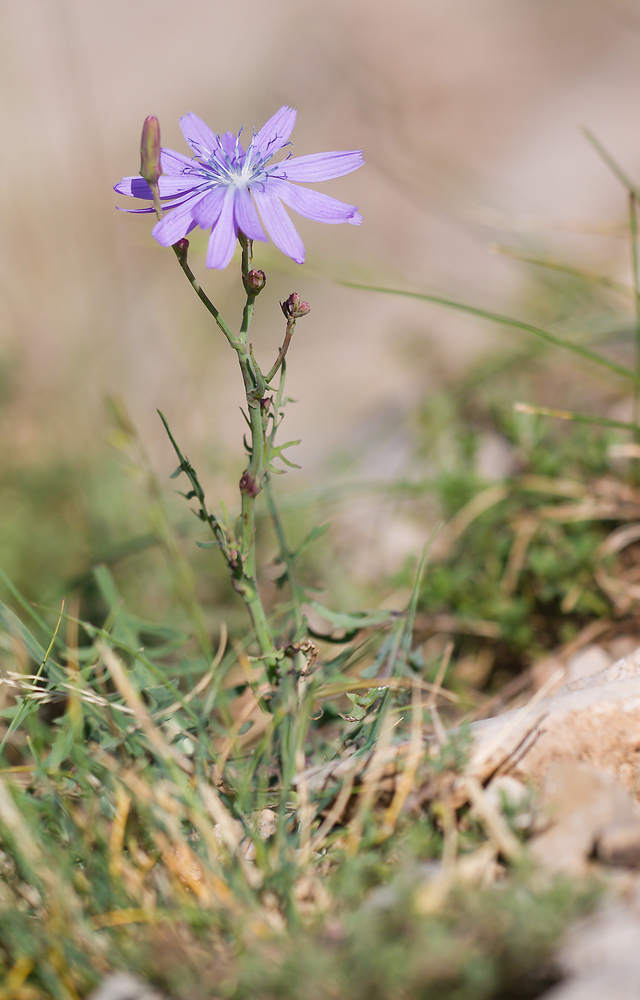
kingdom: Plantae
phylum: Tracheophyta
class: Magnoliopsida
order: Asterales
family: Asteraceae
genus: Lactuca
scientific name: Lactuca perennis
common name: Mountain lettuce
